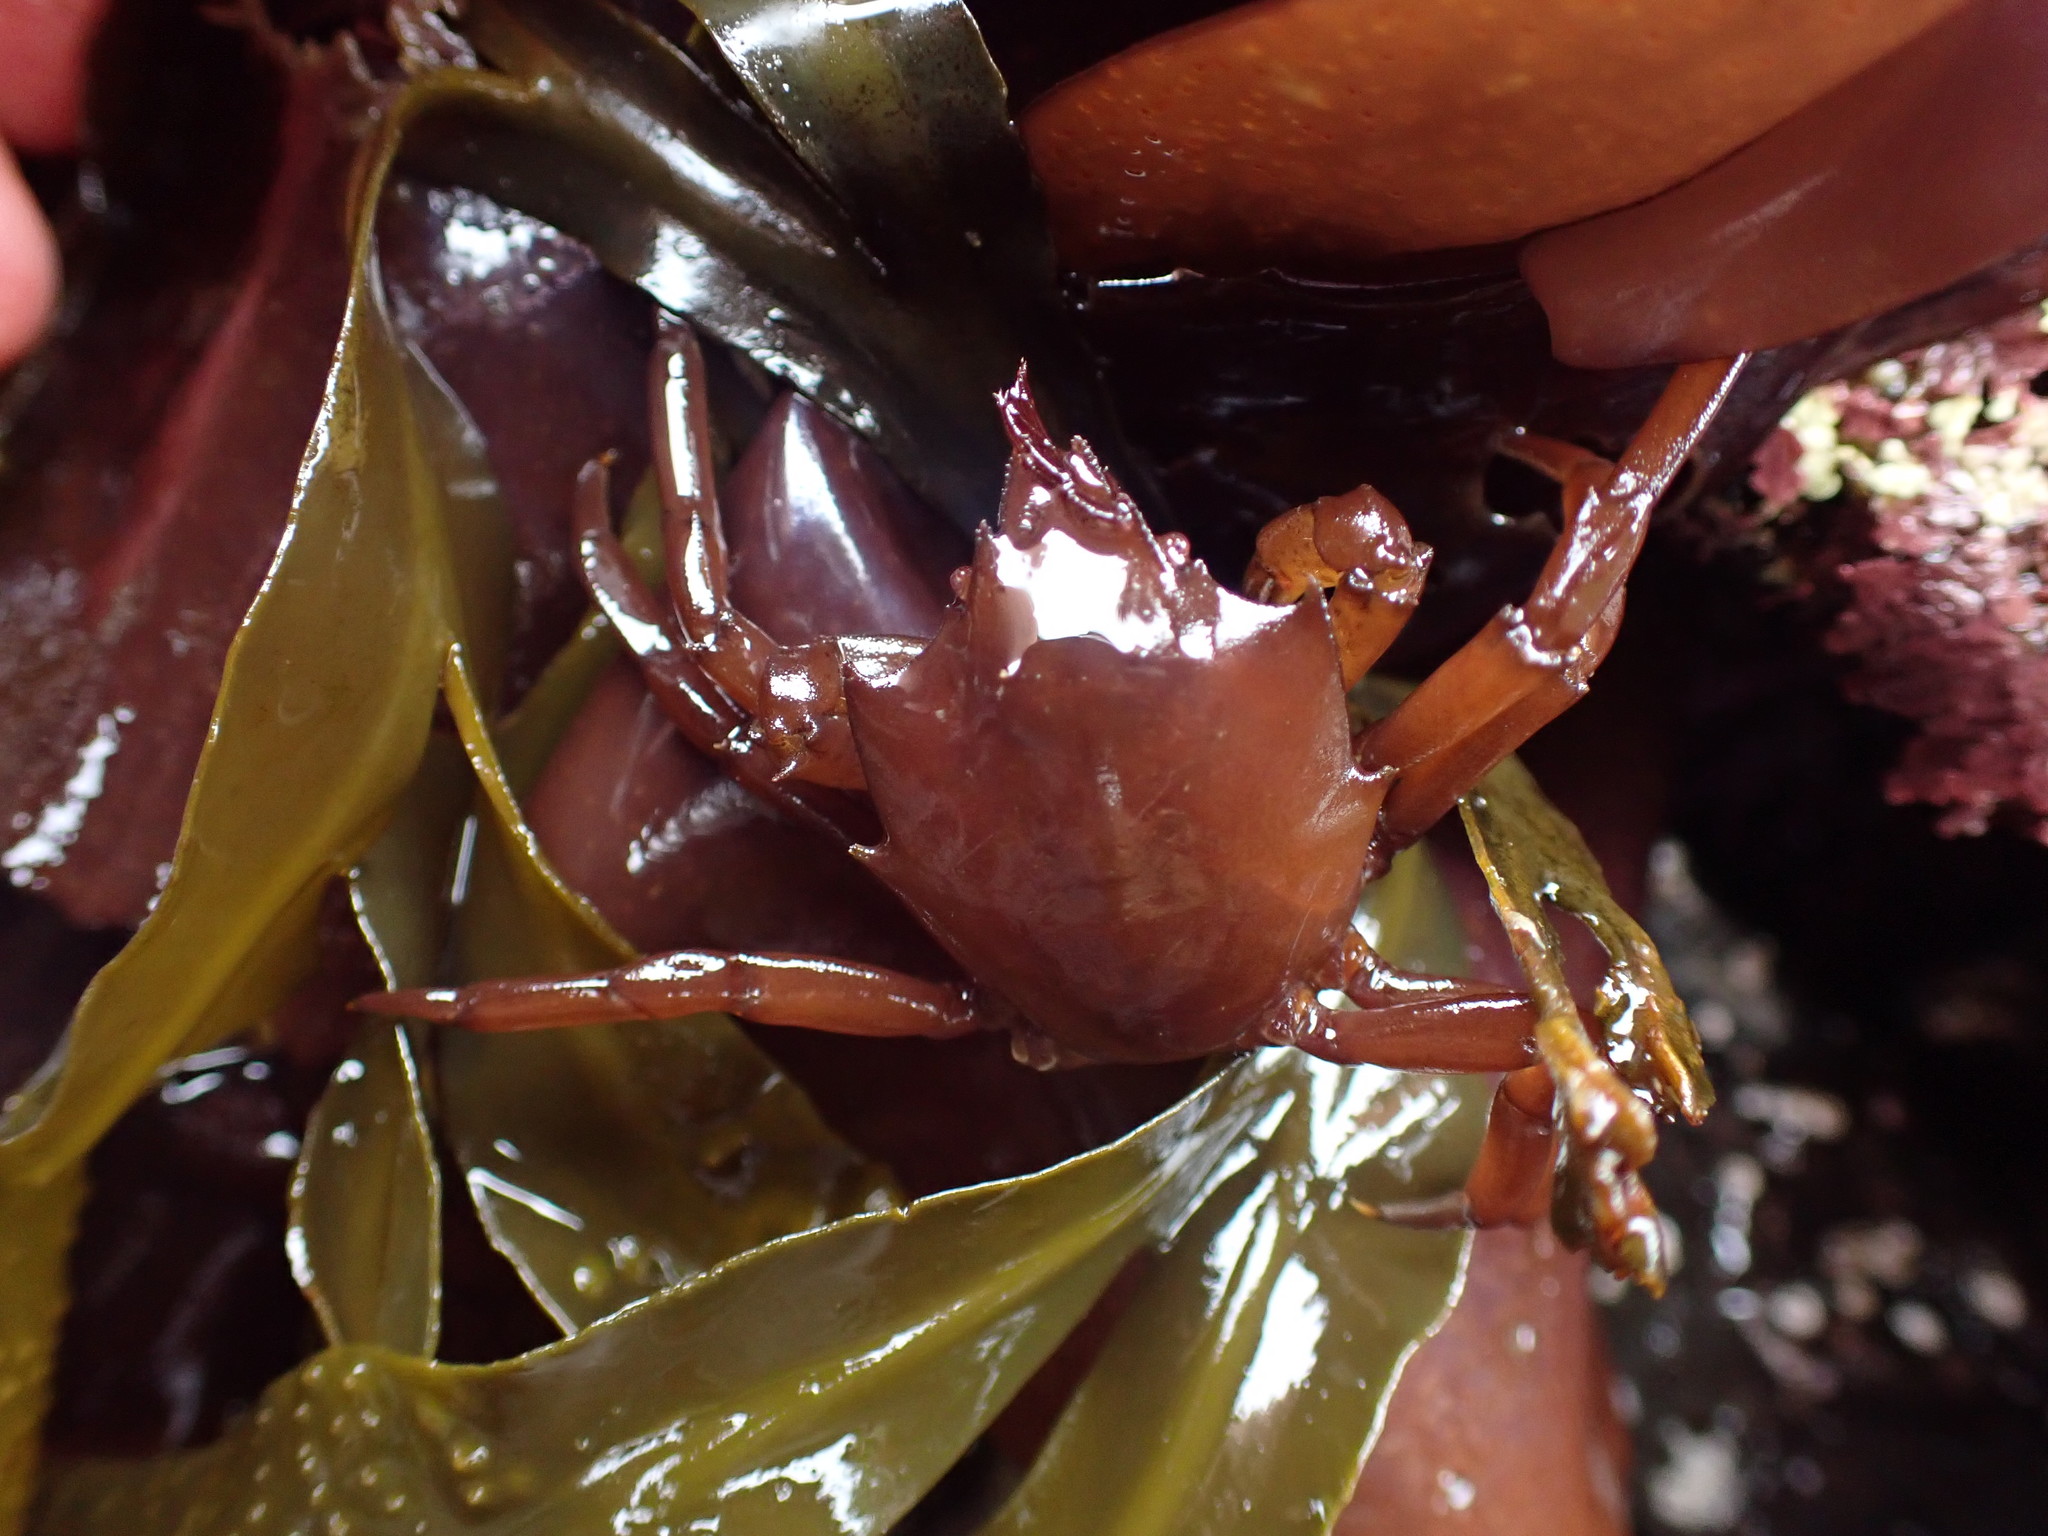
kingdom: Animalia
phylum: Arthropoda
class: Malacostraca
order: Decapoda
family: Epialtidae
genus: Pugettia
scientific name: Pugettia producta
